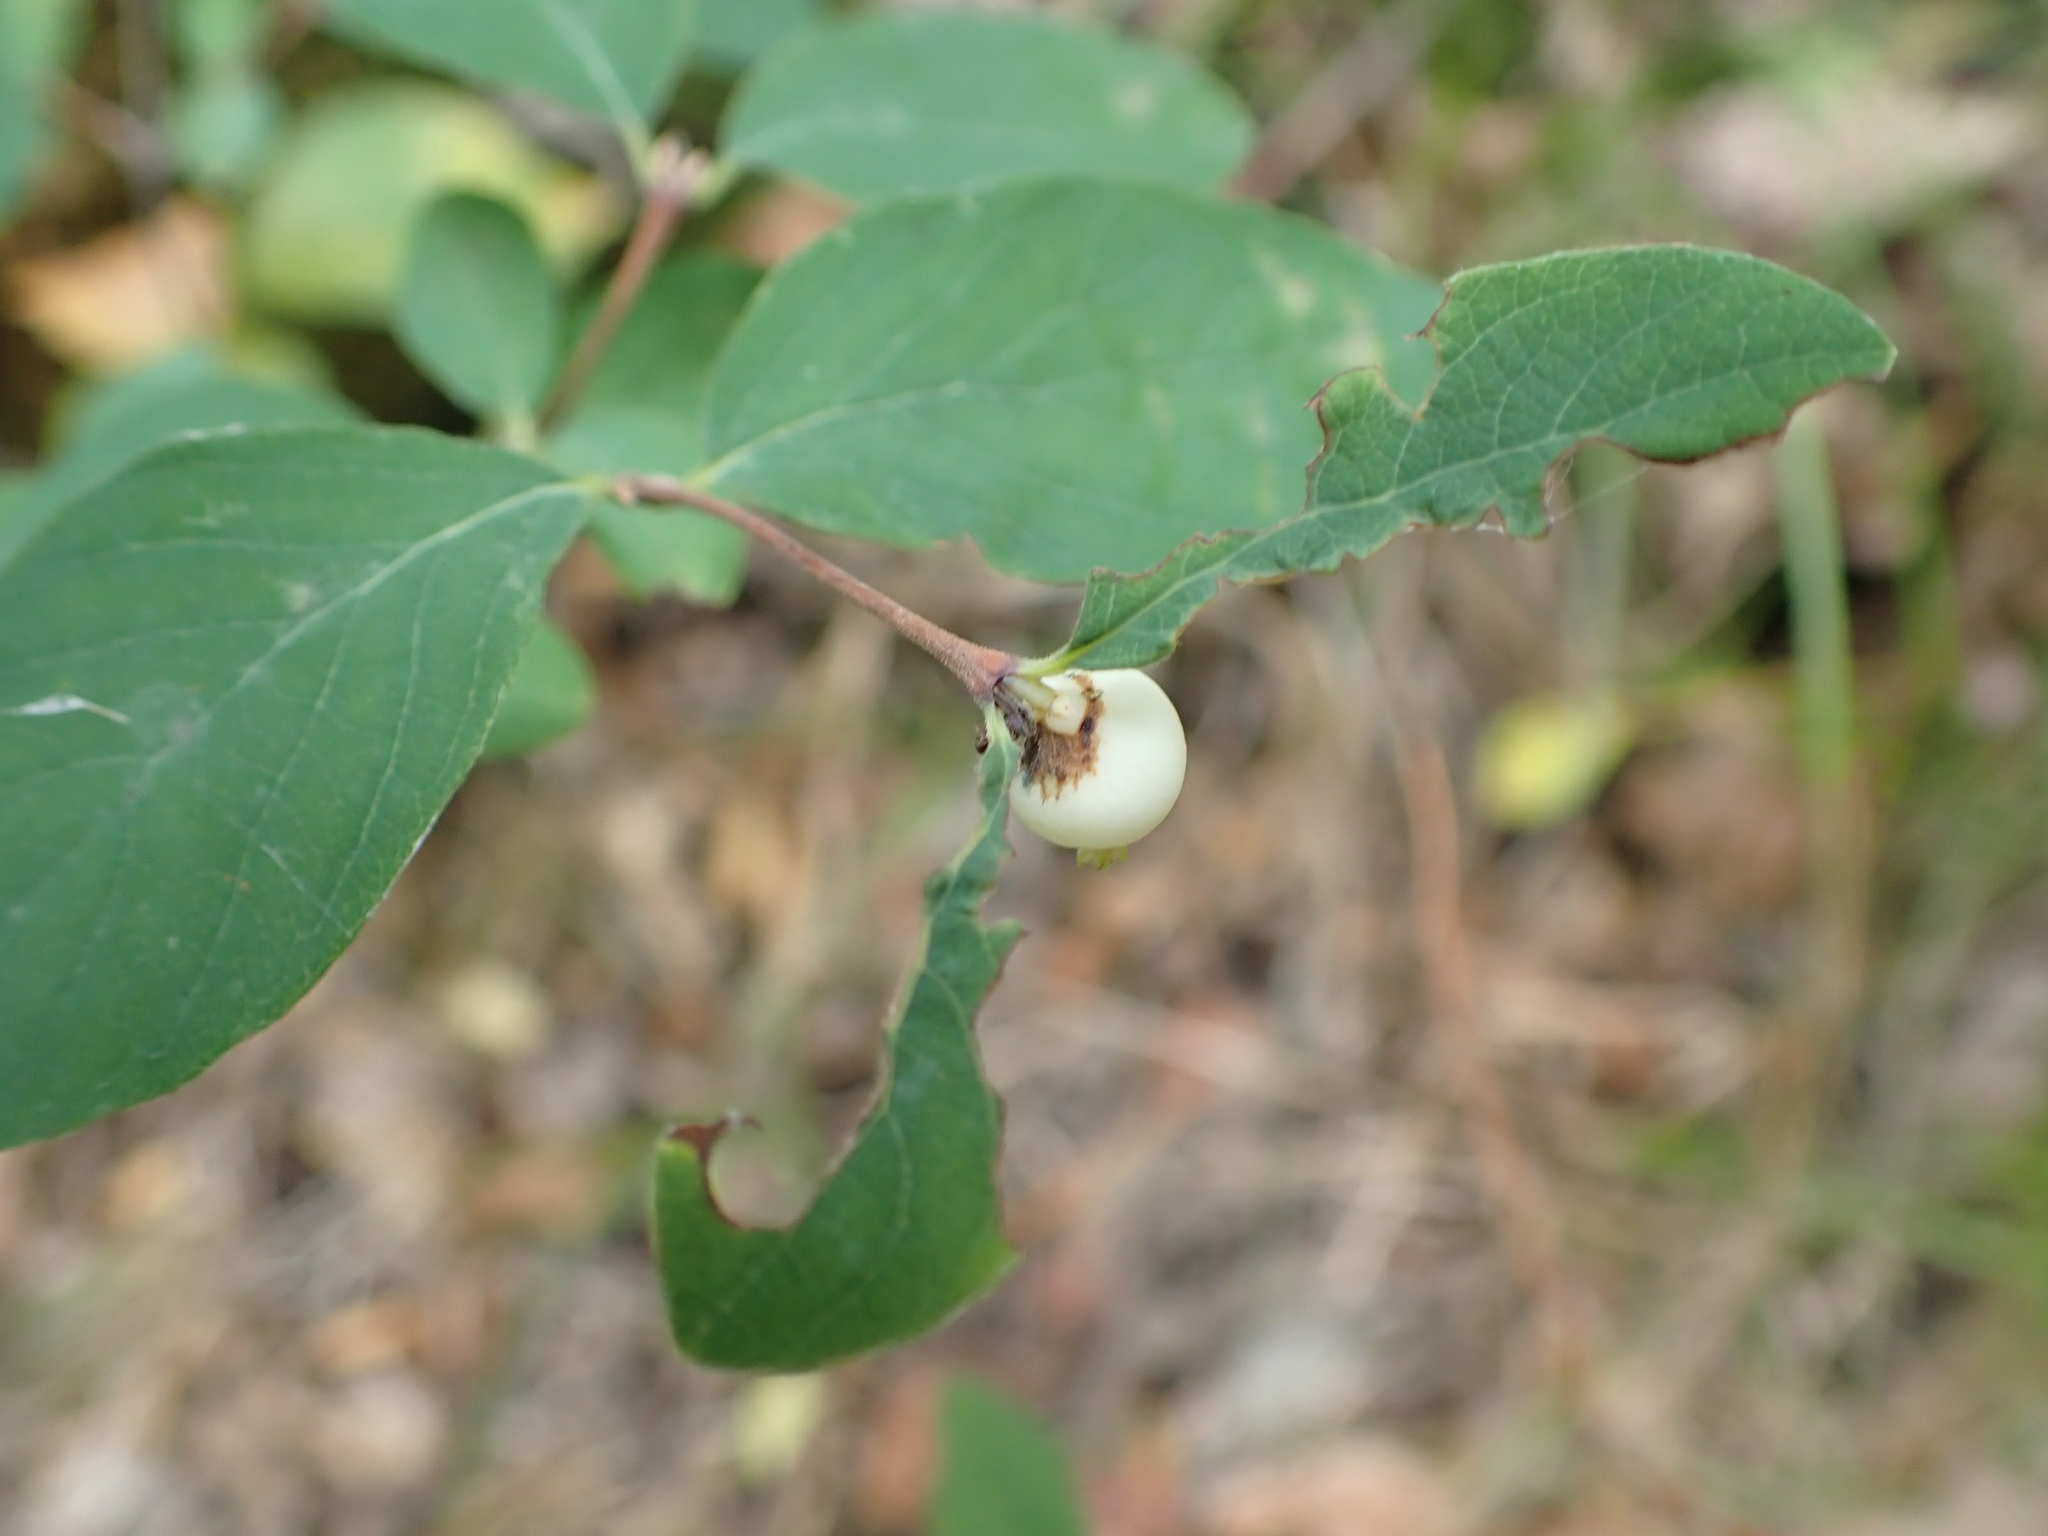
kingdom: Plantae
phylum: Tracheophyta
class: Magnoliopsida
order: Dipsacales
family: Caprifoliaceae
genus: Symphoricarpos
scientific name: Symphoricarpos albus
